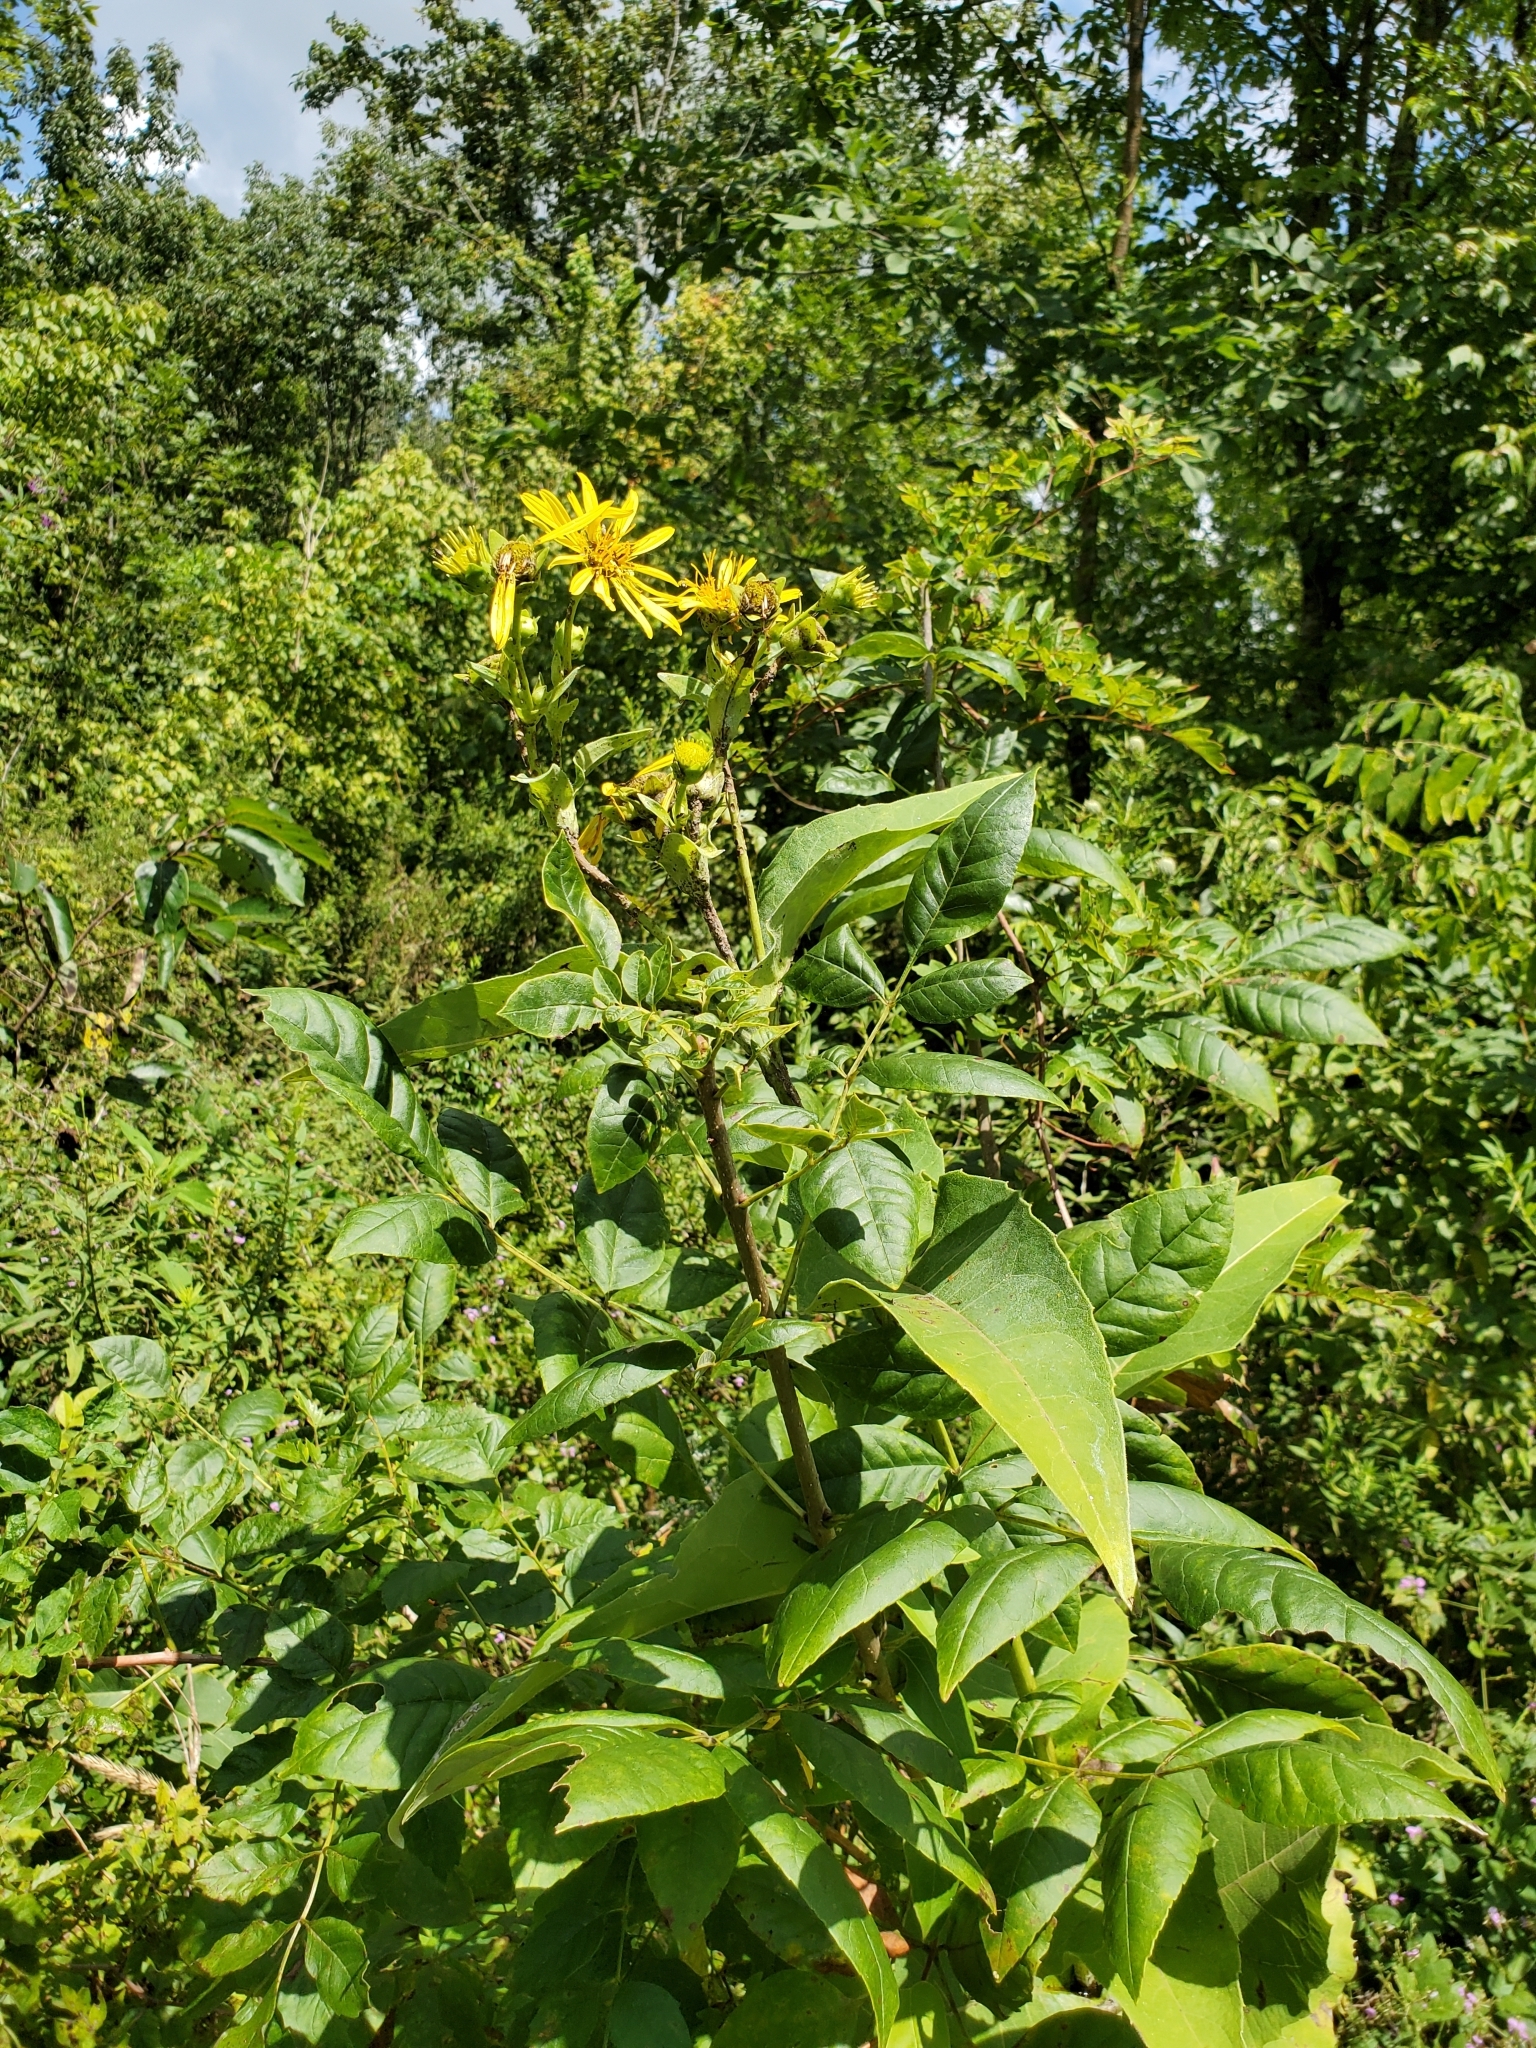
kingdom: Plantae
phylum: Tracheophyta
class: Magnoliopsida
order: Asterales
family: Asteraceae
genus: Silphium
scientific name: Silphium perfoliatum
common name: Cup-plant
